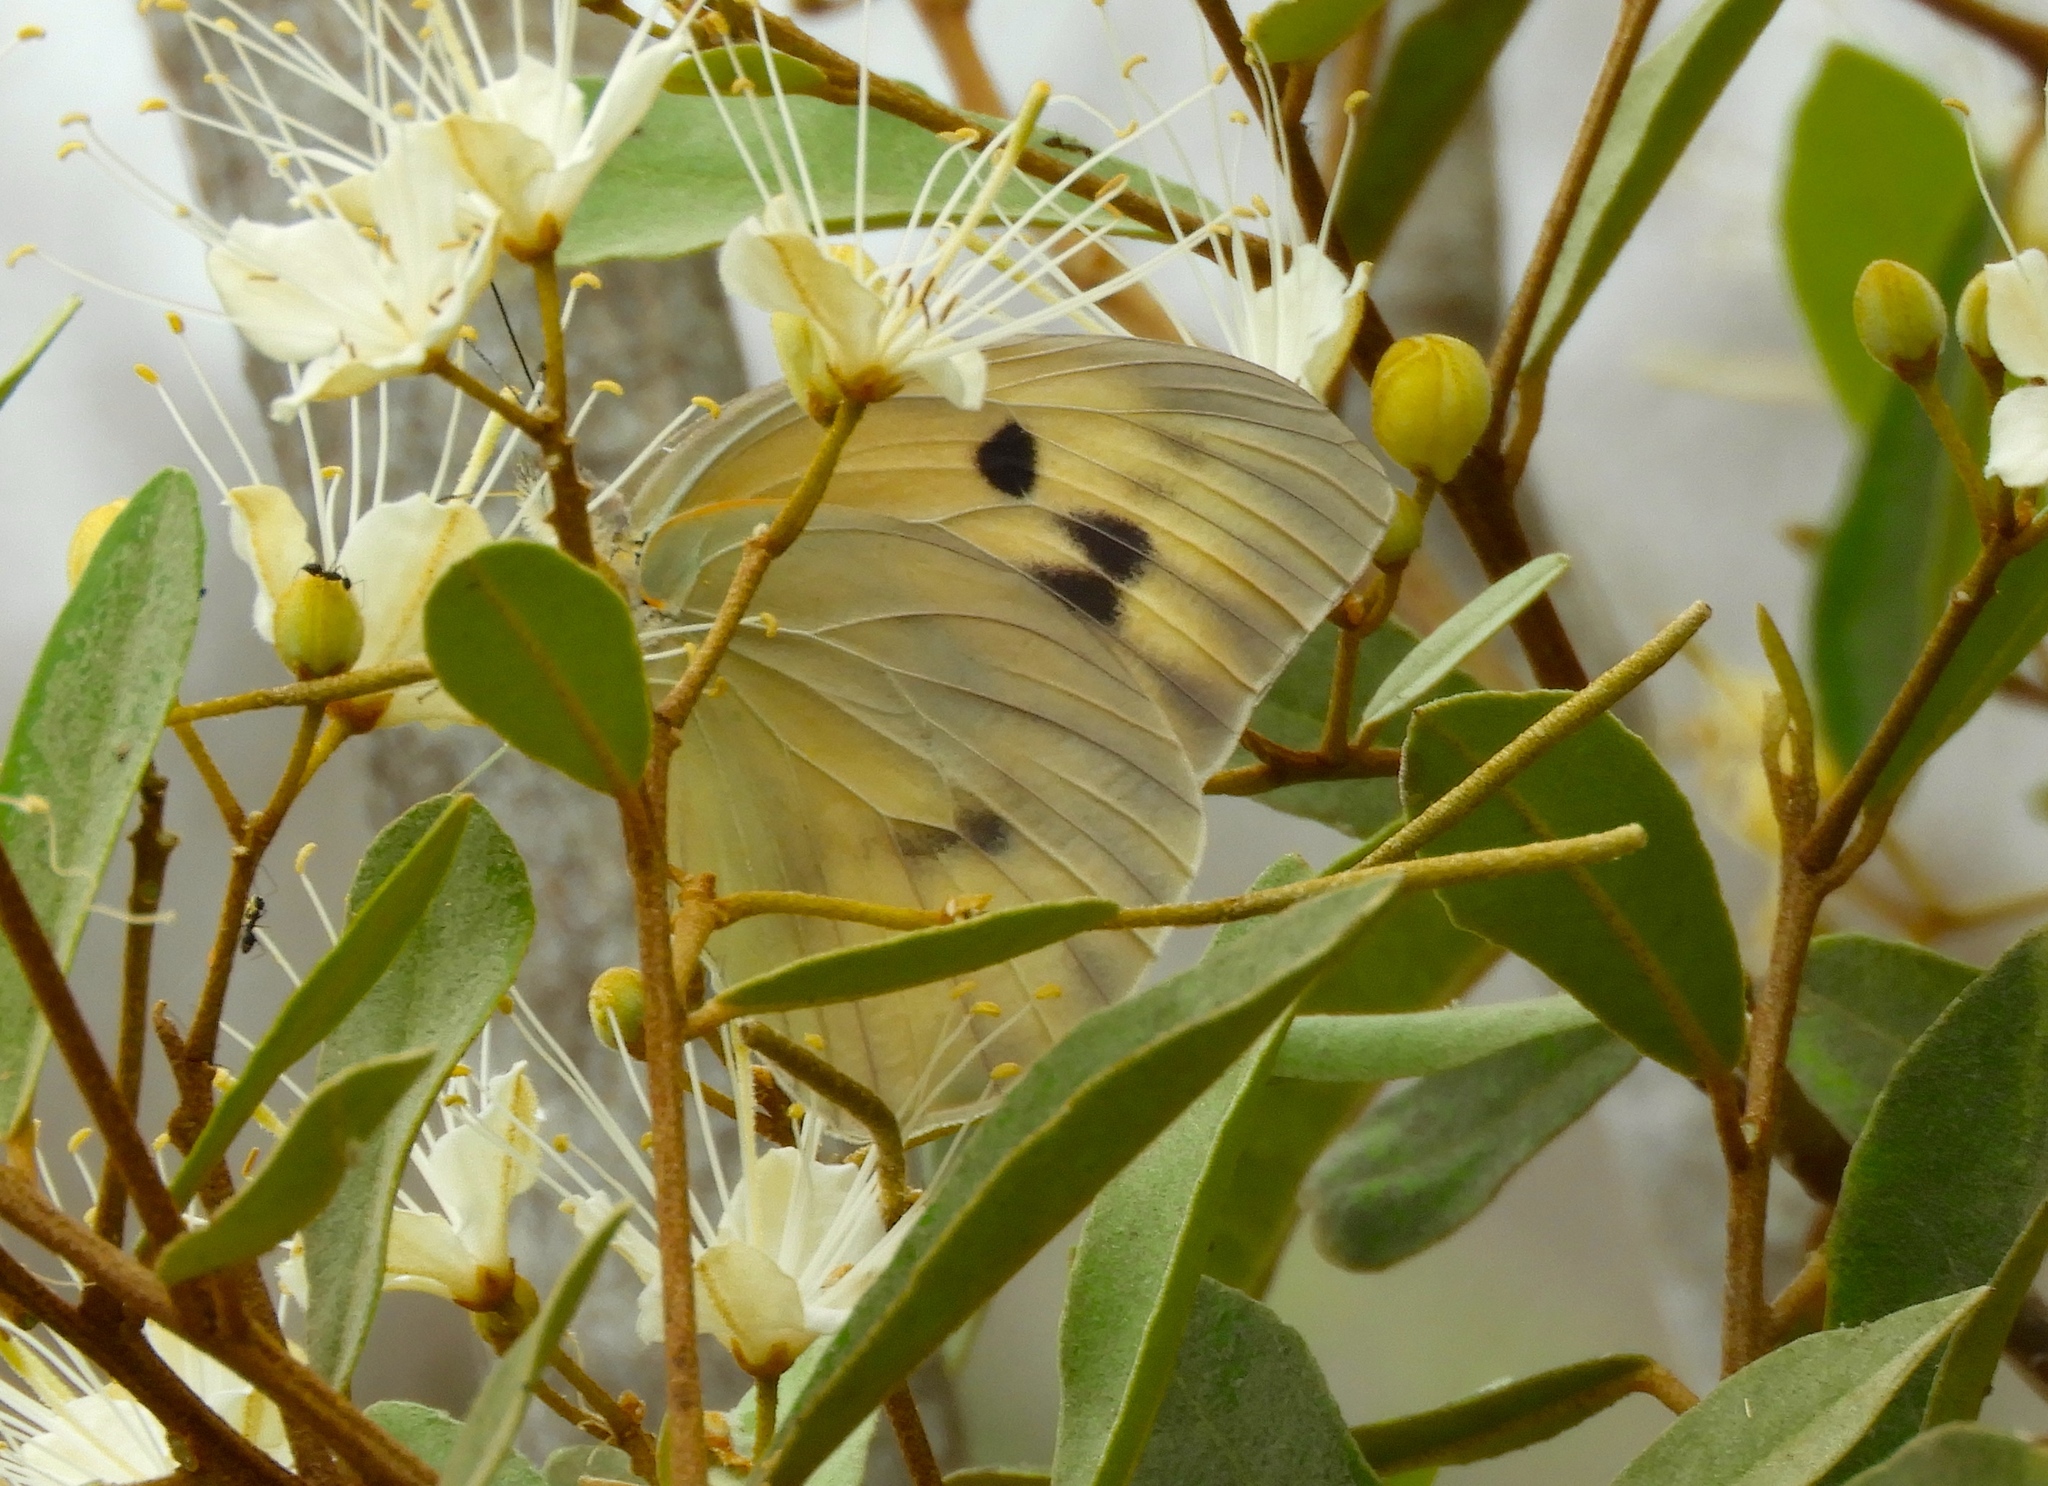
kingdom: Animalia
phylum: Arthropoda
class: Insecta
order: Lepidoptera
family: Pieridae
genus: Ganyra
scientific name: Ganyra josephina
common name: Giant white
